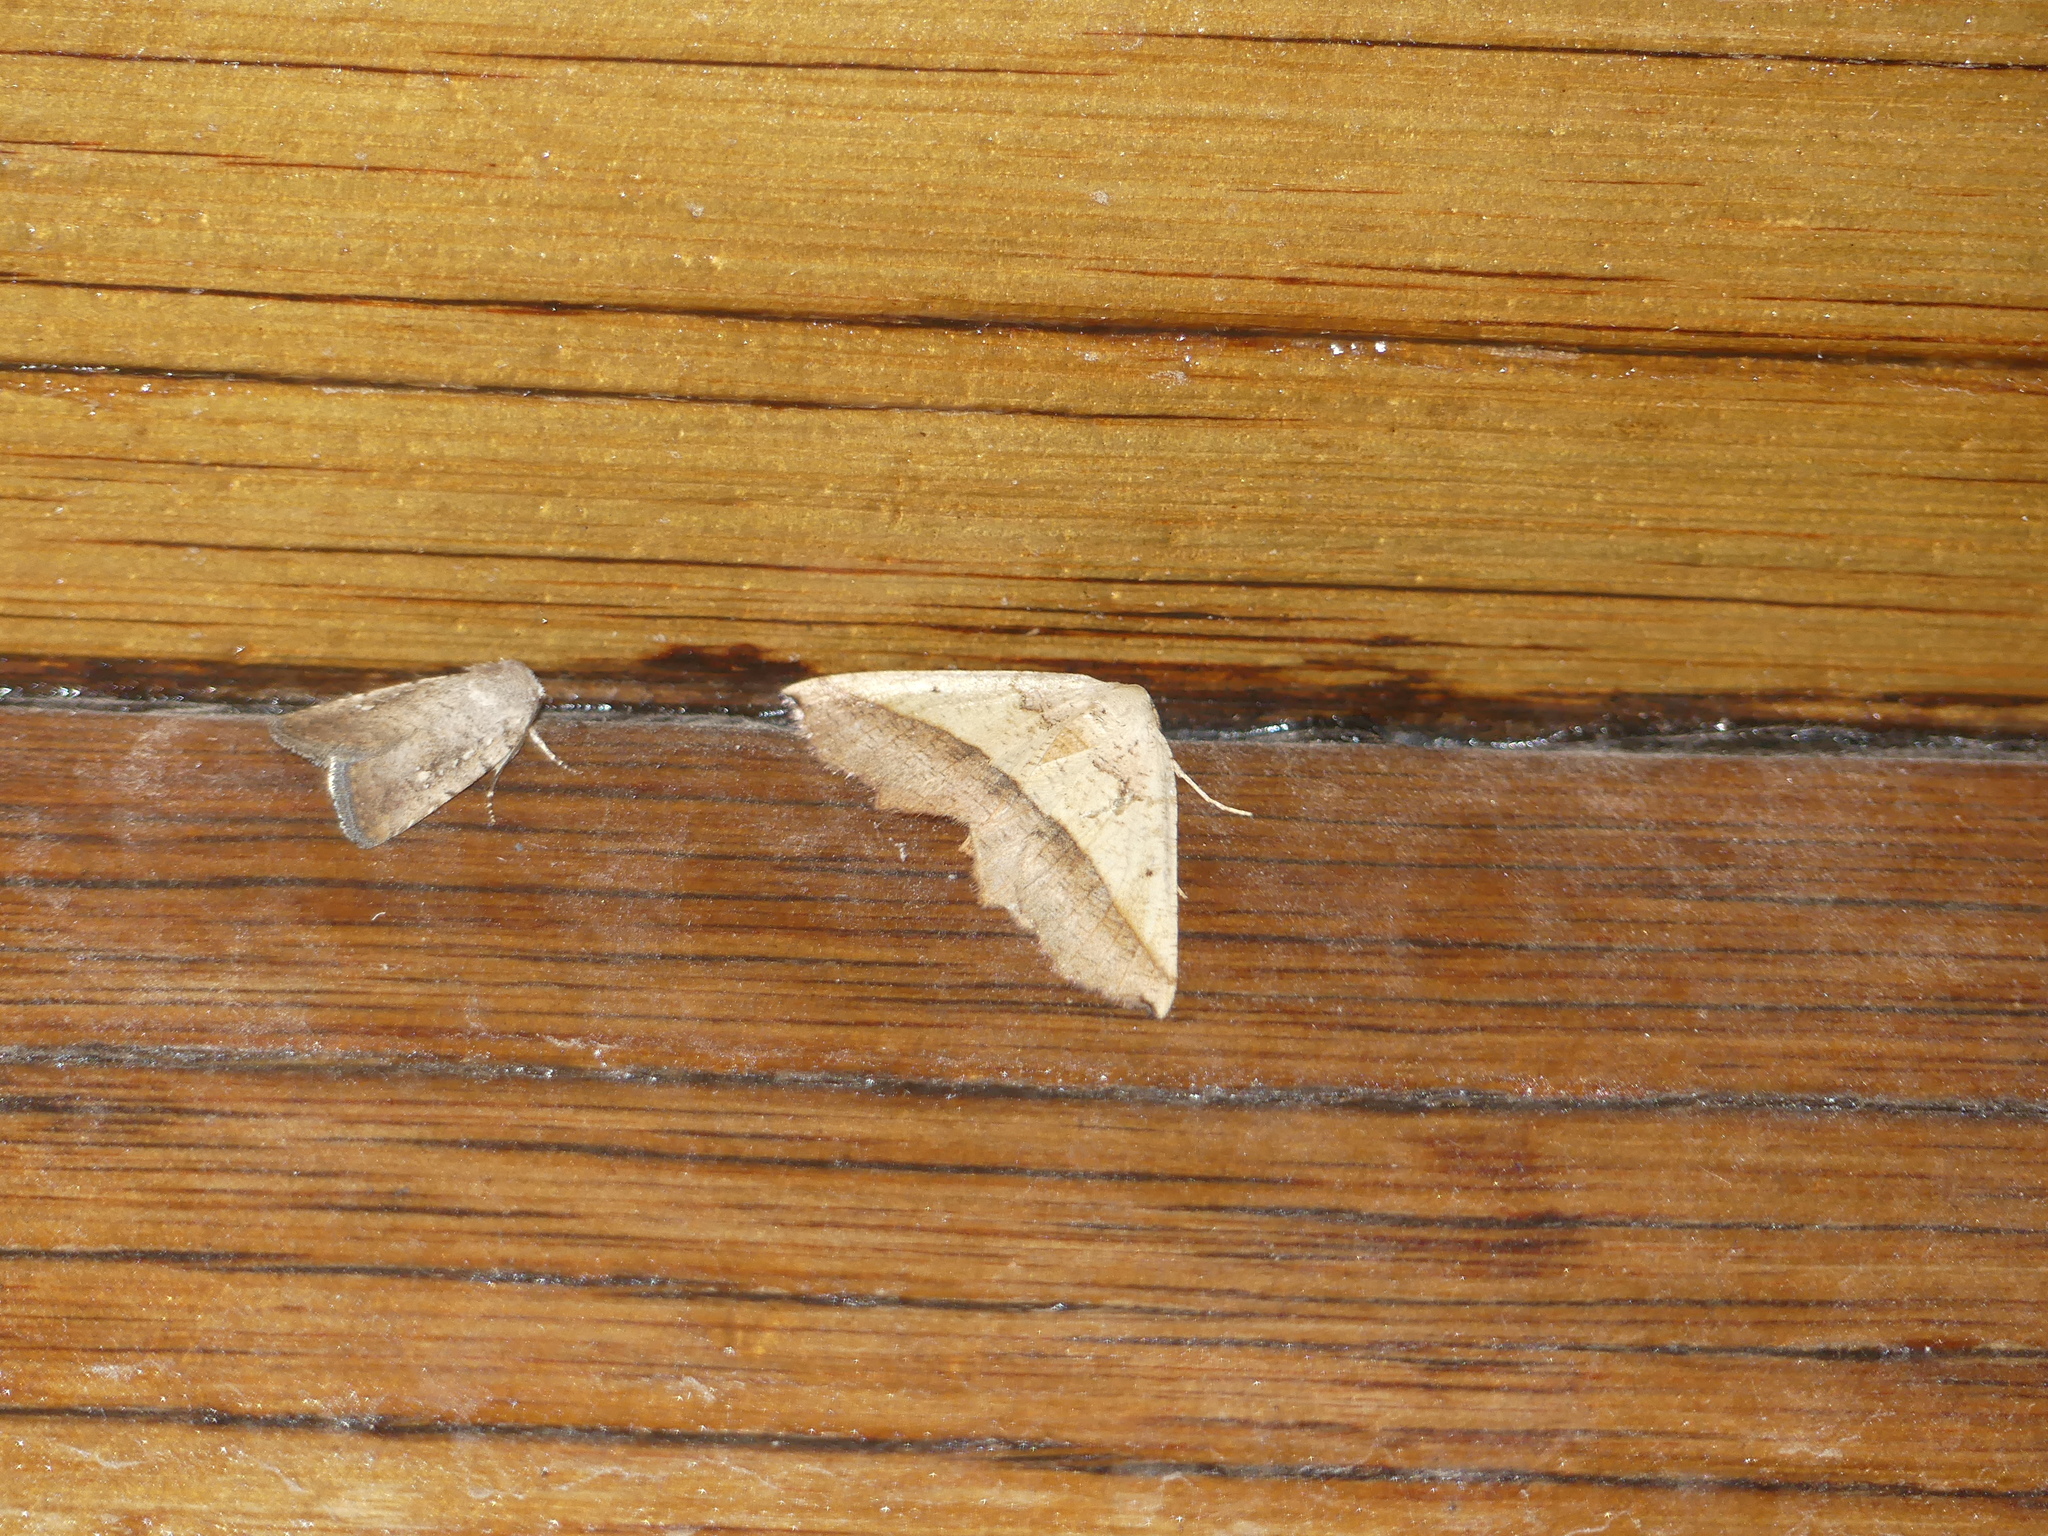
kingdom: Animalia
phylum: Arthropoda
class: Insecta
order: Lepidoptera
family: Geometridae
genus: Drepanogynis
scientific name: Drepanogynis tripartita
